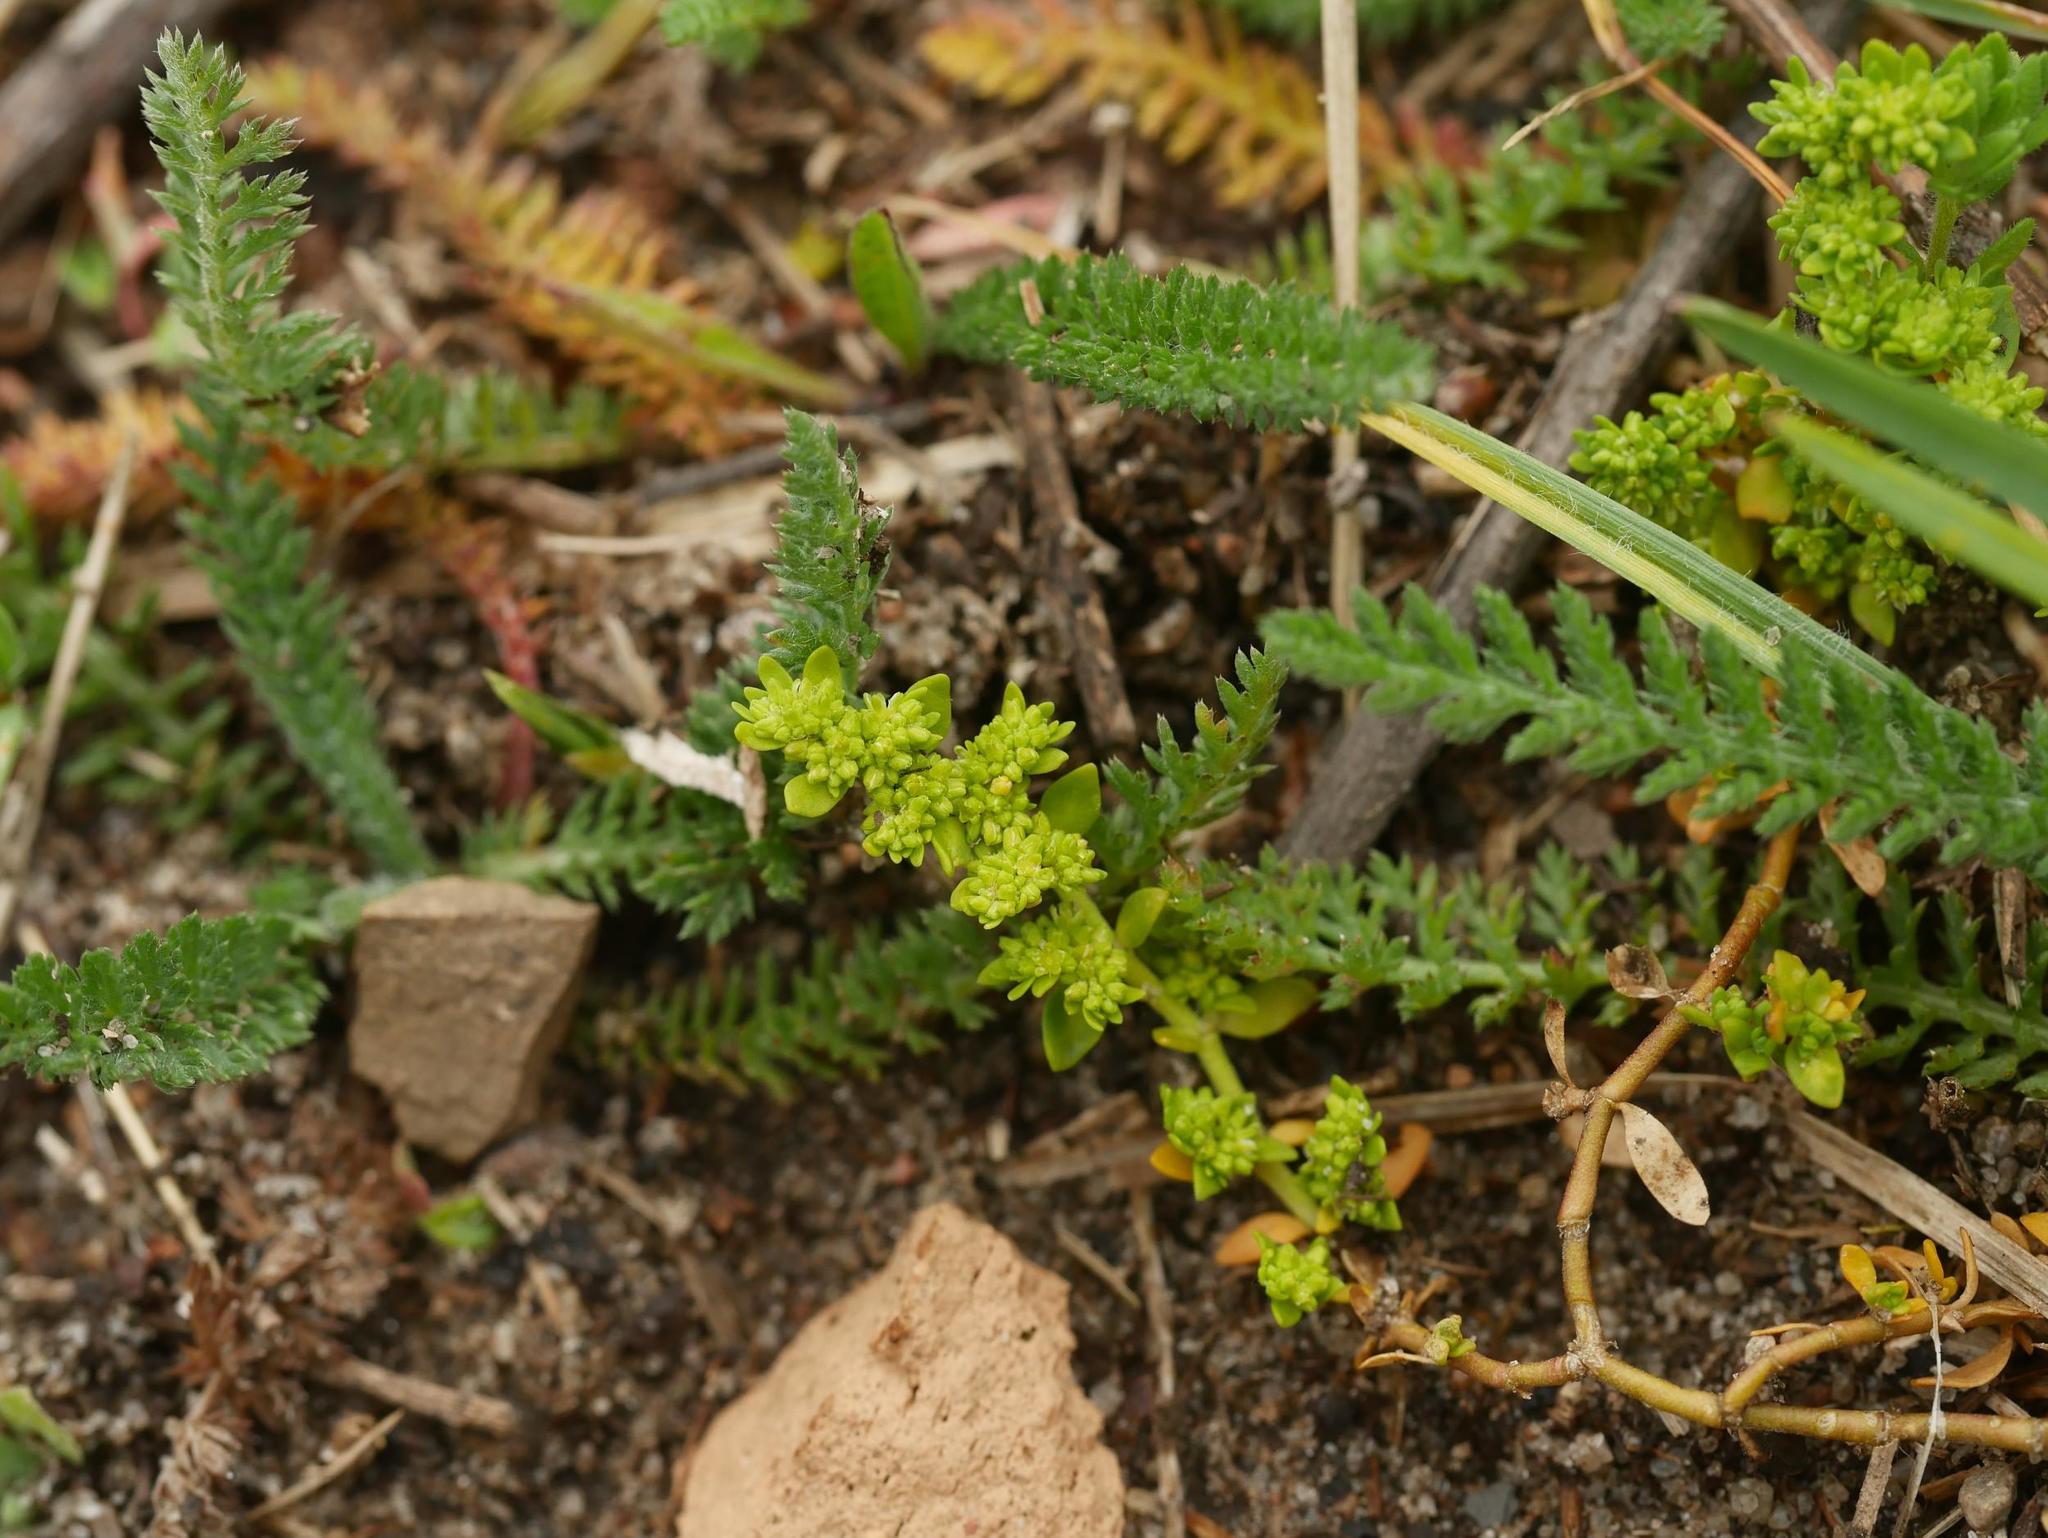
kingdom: Plantae
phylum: Tracheophyta
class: Magnoliopsida
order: Caryophyllales
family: Caryophyllaceae
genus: Herniaria
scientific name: Herniaria glabra
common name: Smooth rupturewort
